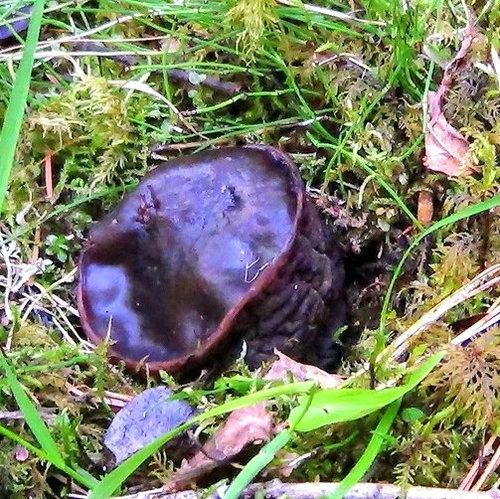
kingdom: Fungi
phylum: Ascomycota
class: Pezizomycetes
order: Pezizales
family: Sarcosomataceae
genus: Sarcosoma
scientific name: Sarcosoma globosum
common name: Charred-pancake cup
